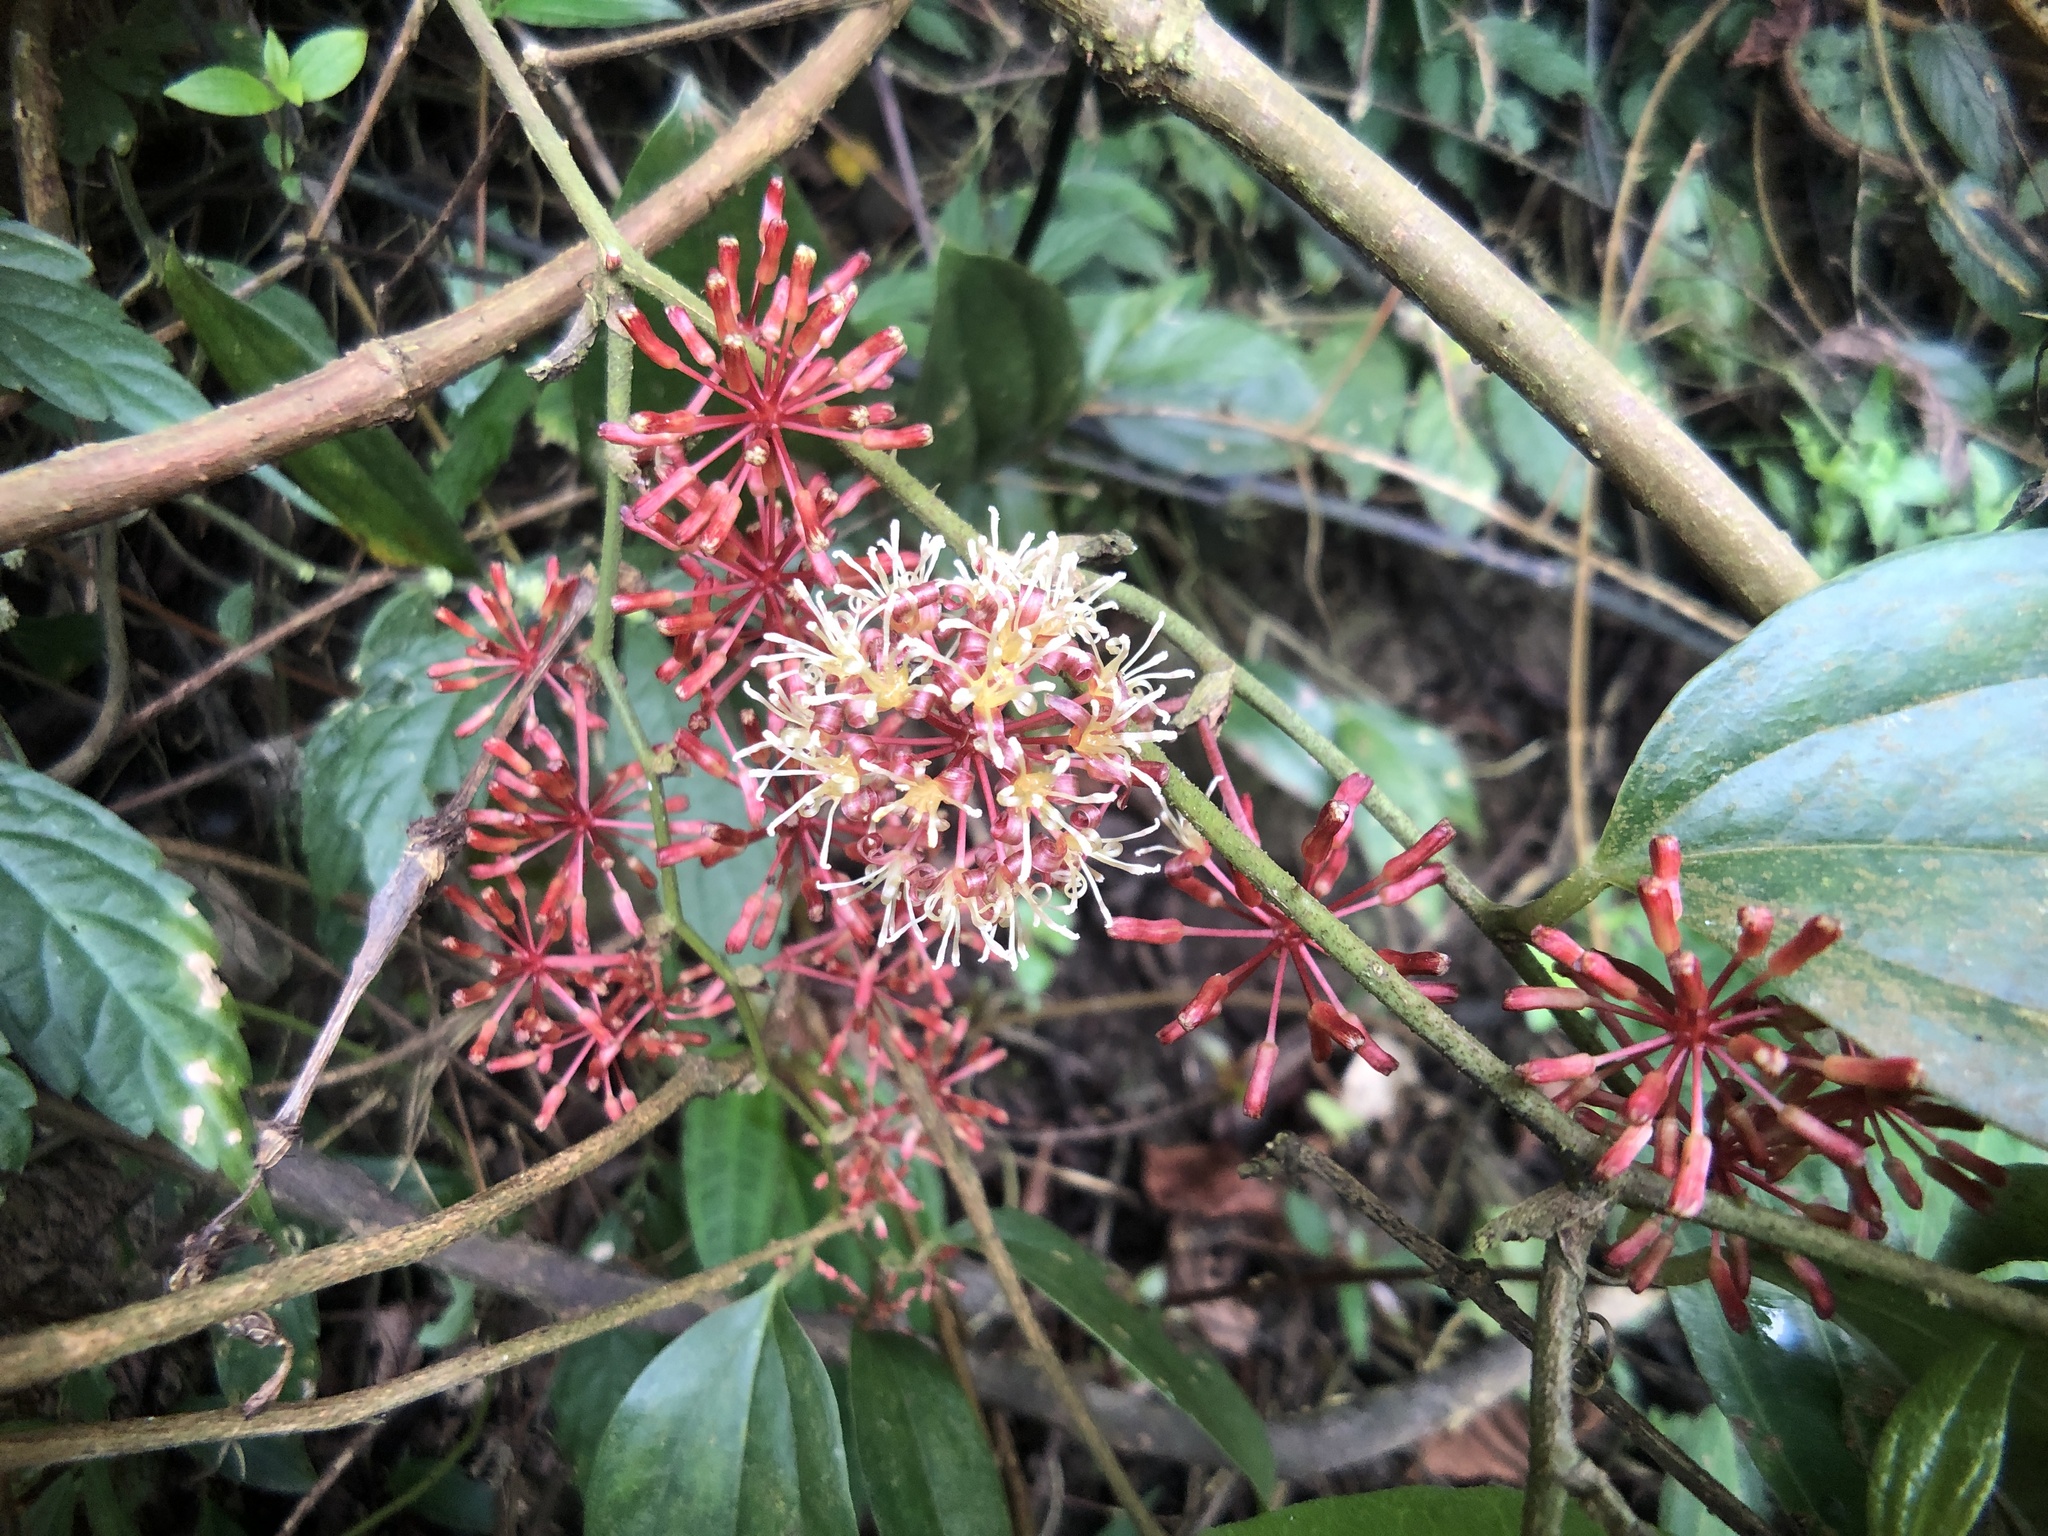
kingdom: Plantae
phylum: Tracheophyta
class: Liliopsida
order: Liliales
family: Smilacaceae
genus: Smilax
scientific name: Smilax aspericaulis
